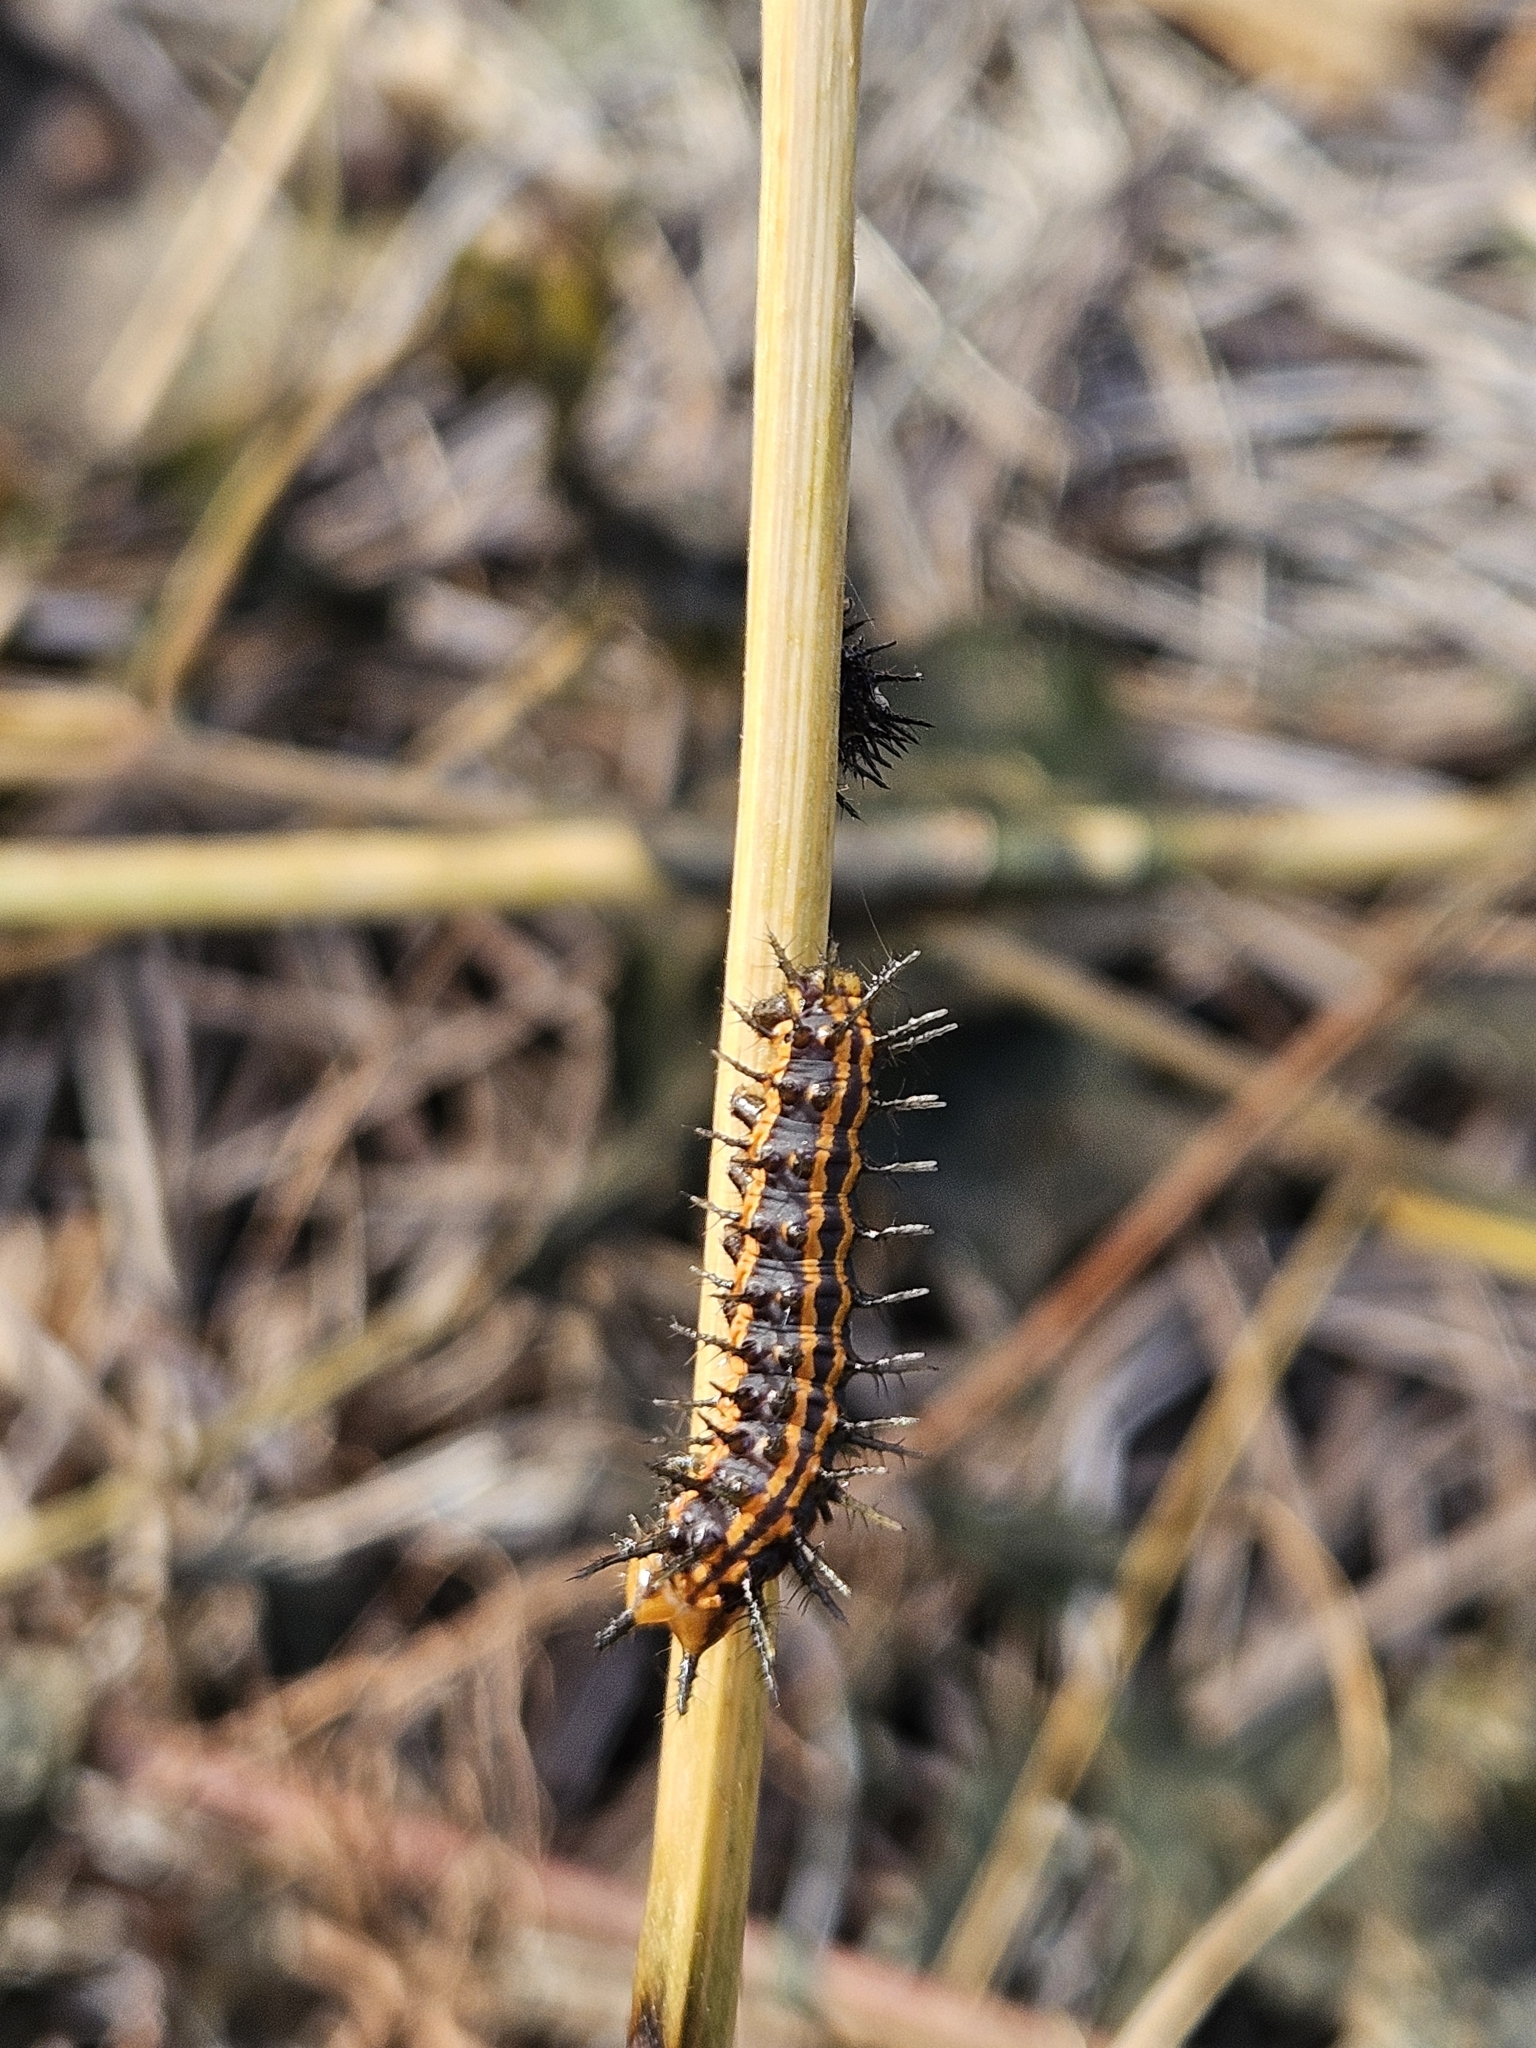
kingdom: Animalia
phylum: Arthropoda
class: Insecta
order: Lepidoptera
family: Nymphalidae
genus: Dione
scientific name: Dione vanillae
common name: Gulf fritillary
